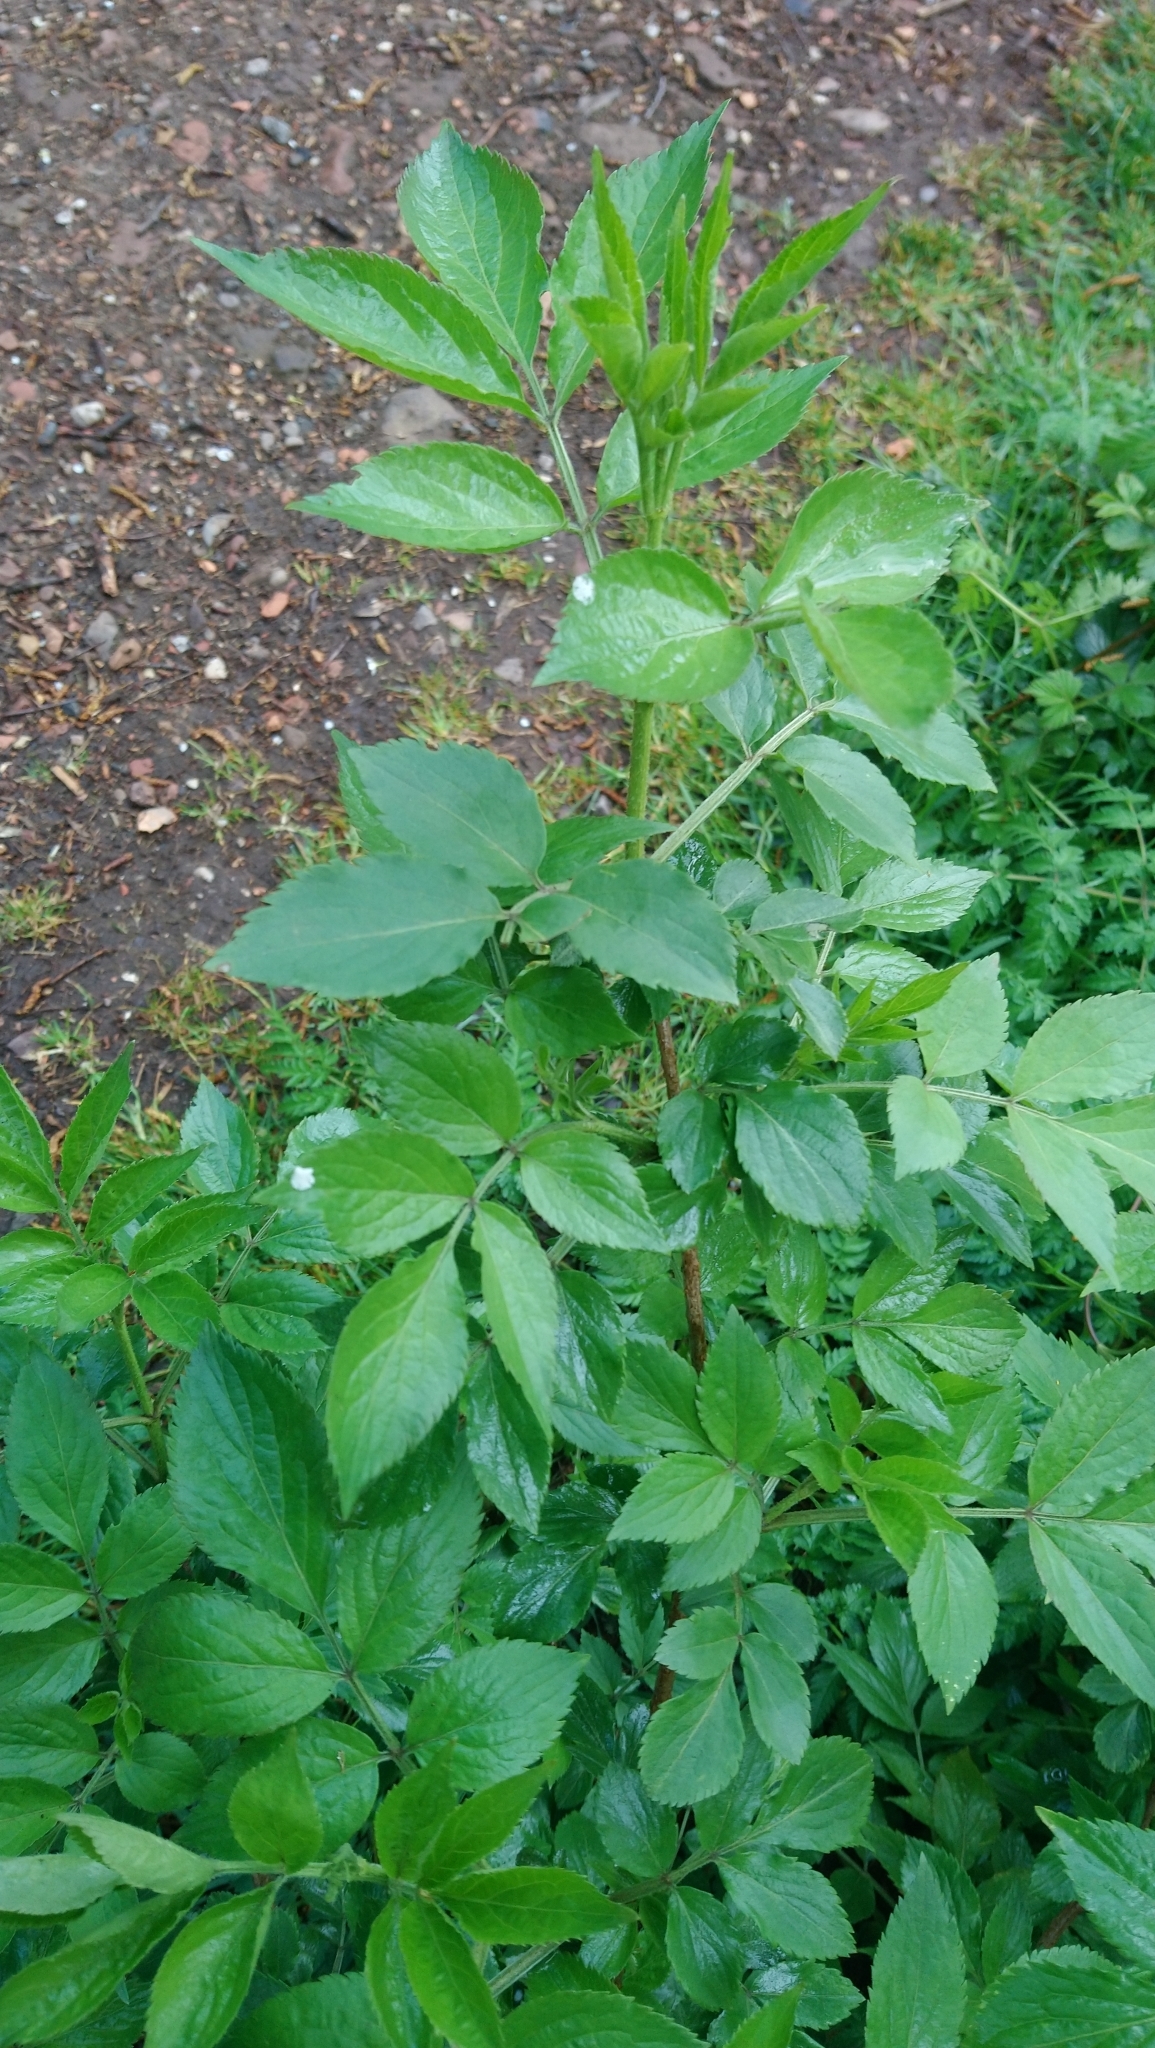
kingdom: Plantae
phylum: Tracheophyta
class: Magnoliopsida
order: Dipsacales
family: Viburnaceae
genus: Sambucus
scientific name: Sambucus nigra
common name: Elder
